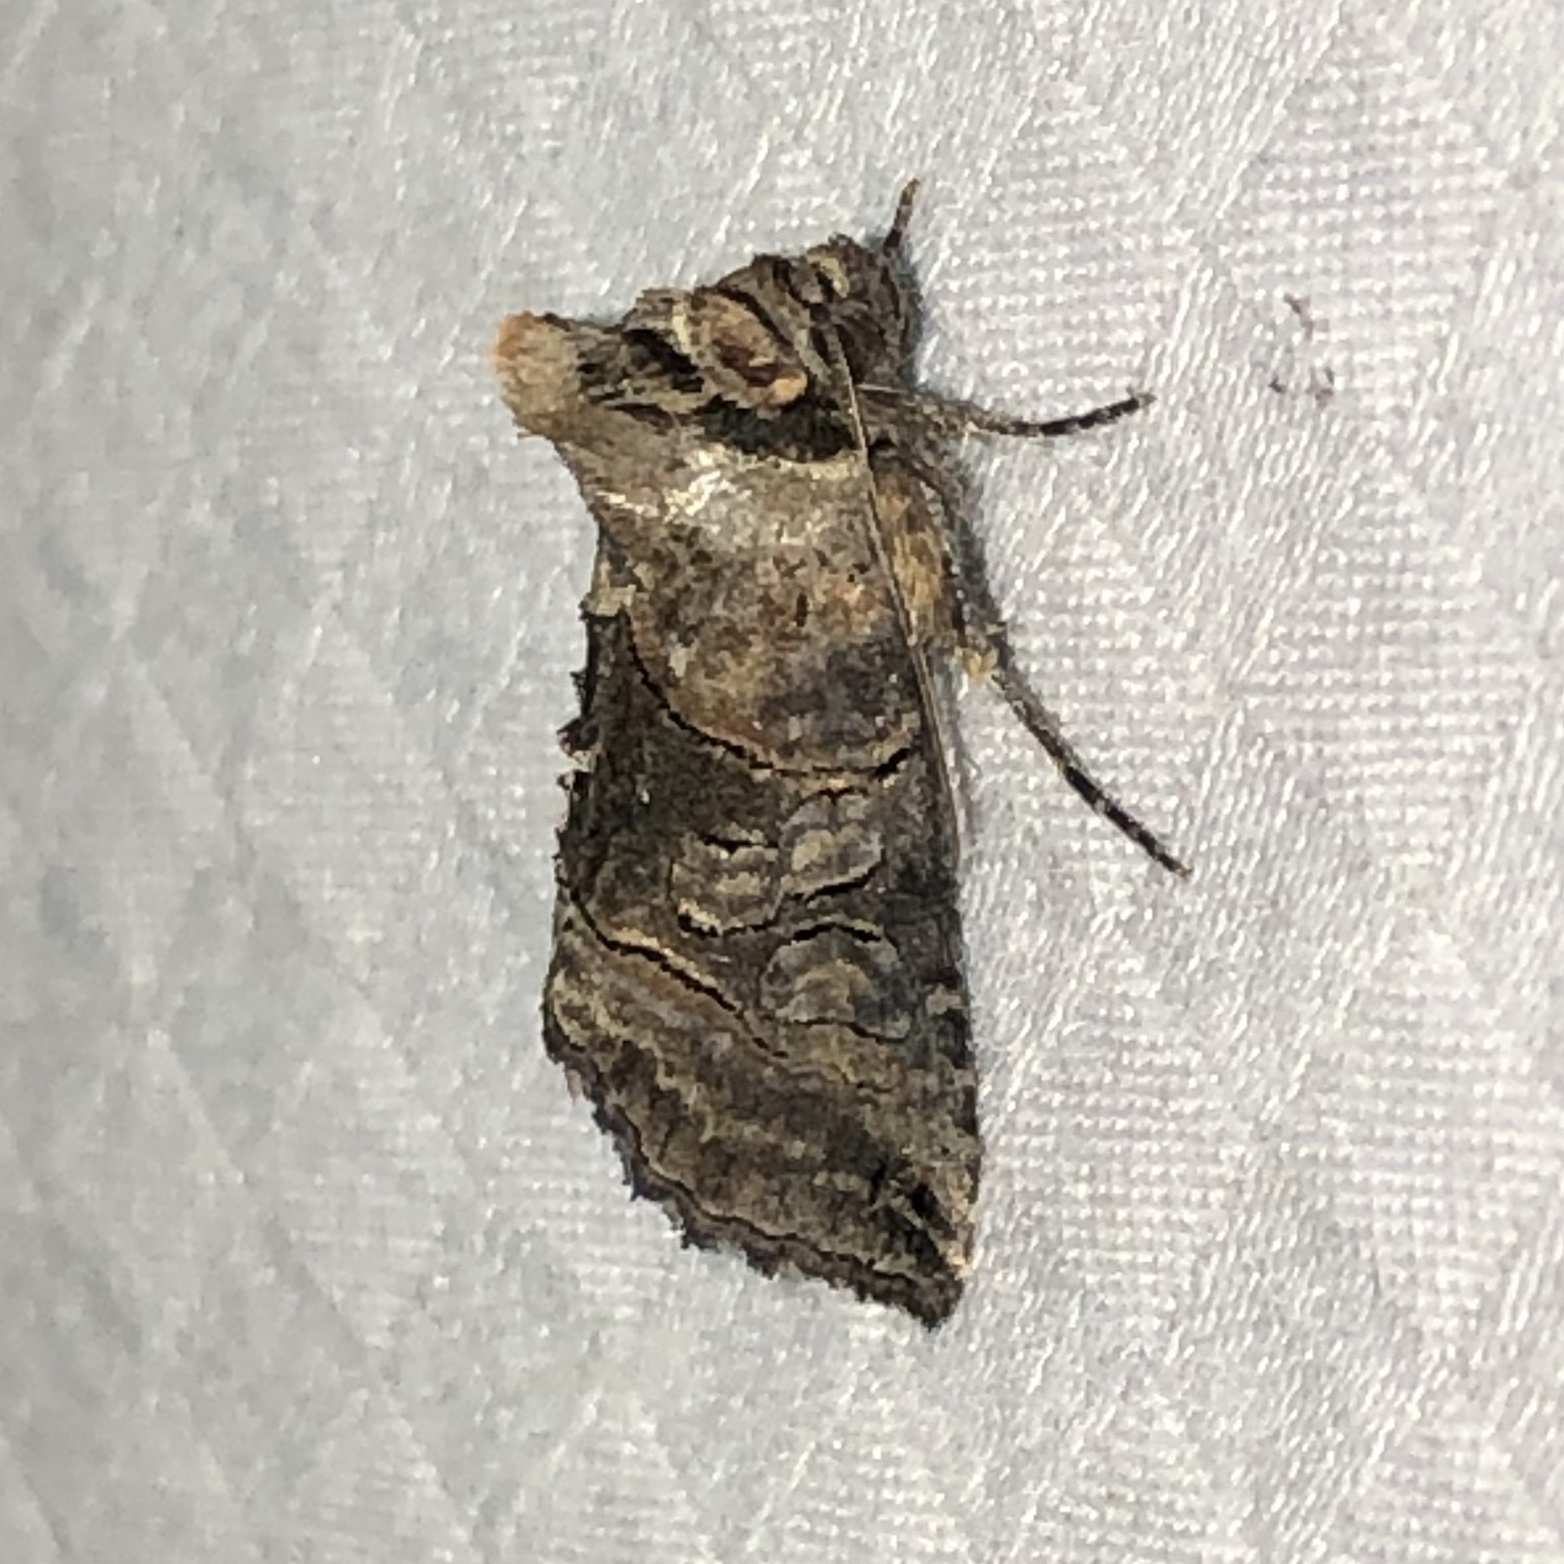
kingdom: Animalia
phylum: Arthropoda
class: Insecta
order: Lepidoptera
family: Noctuidae
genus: Abrostola
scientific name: Abrostola urentis
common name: Spectacled nettle moth
